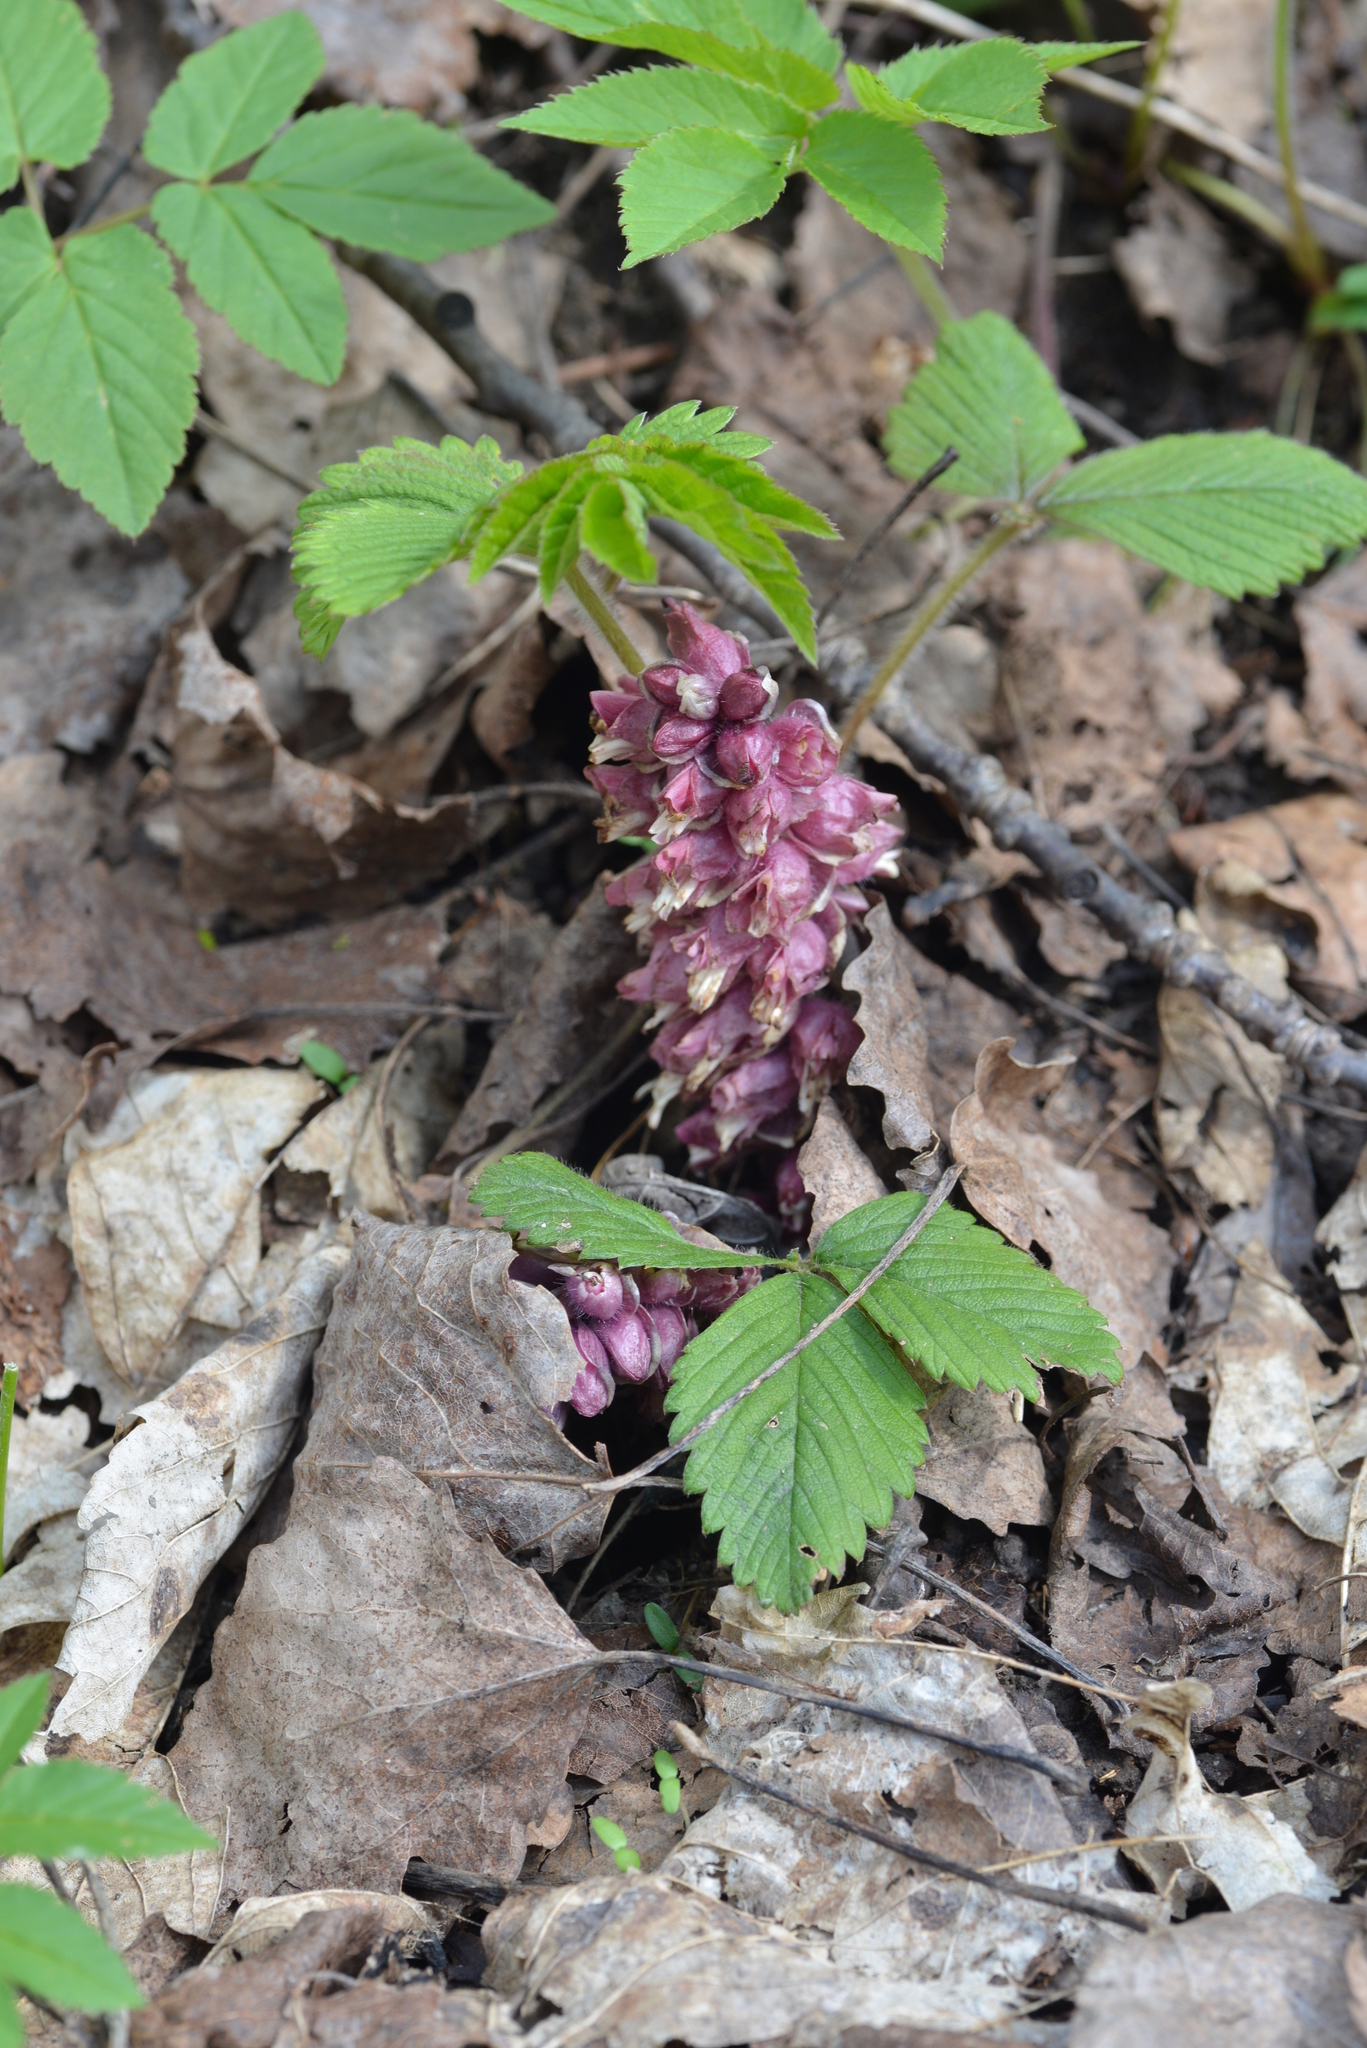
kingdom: Plantae
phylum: Tracheophyta
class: Magnoliopsida
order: Lamiales
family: Orobanchaceae
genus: Lathraea
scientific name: Lathraea squamaria
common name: Toothwort
